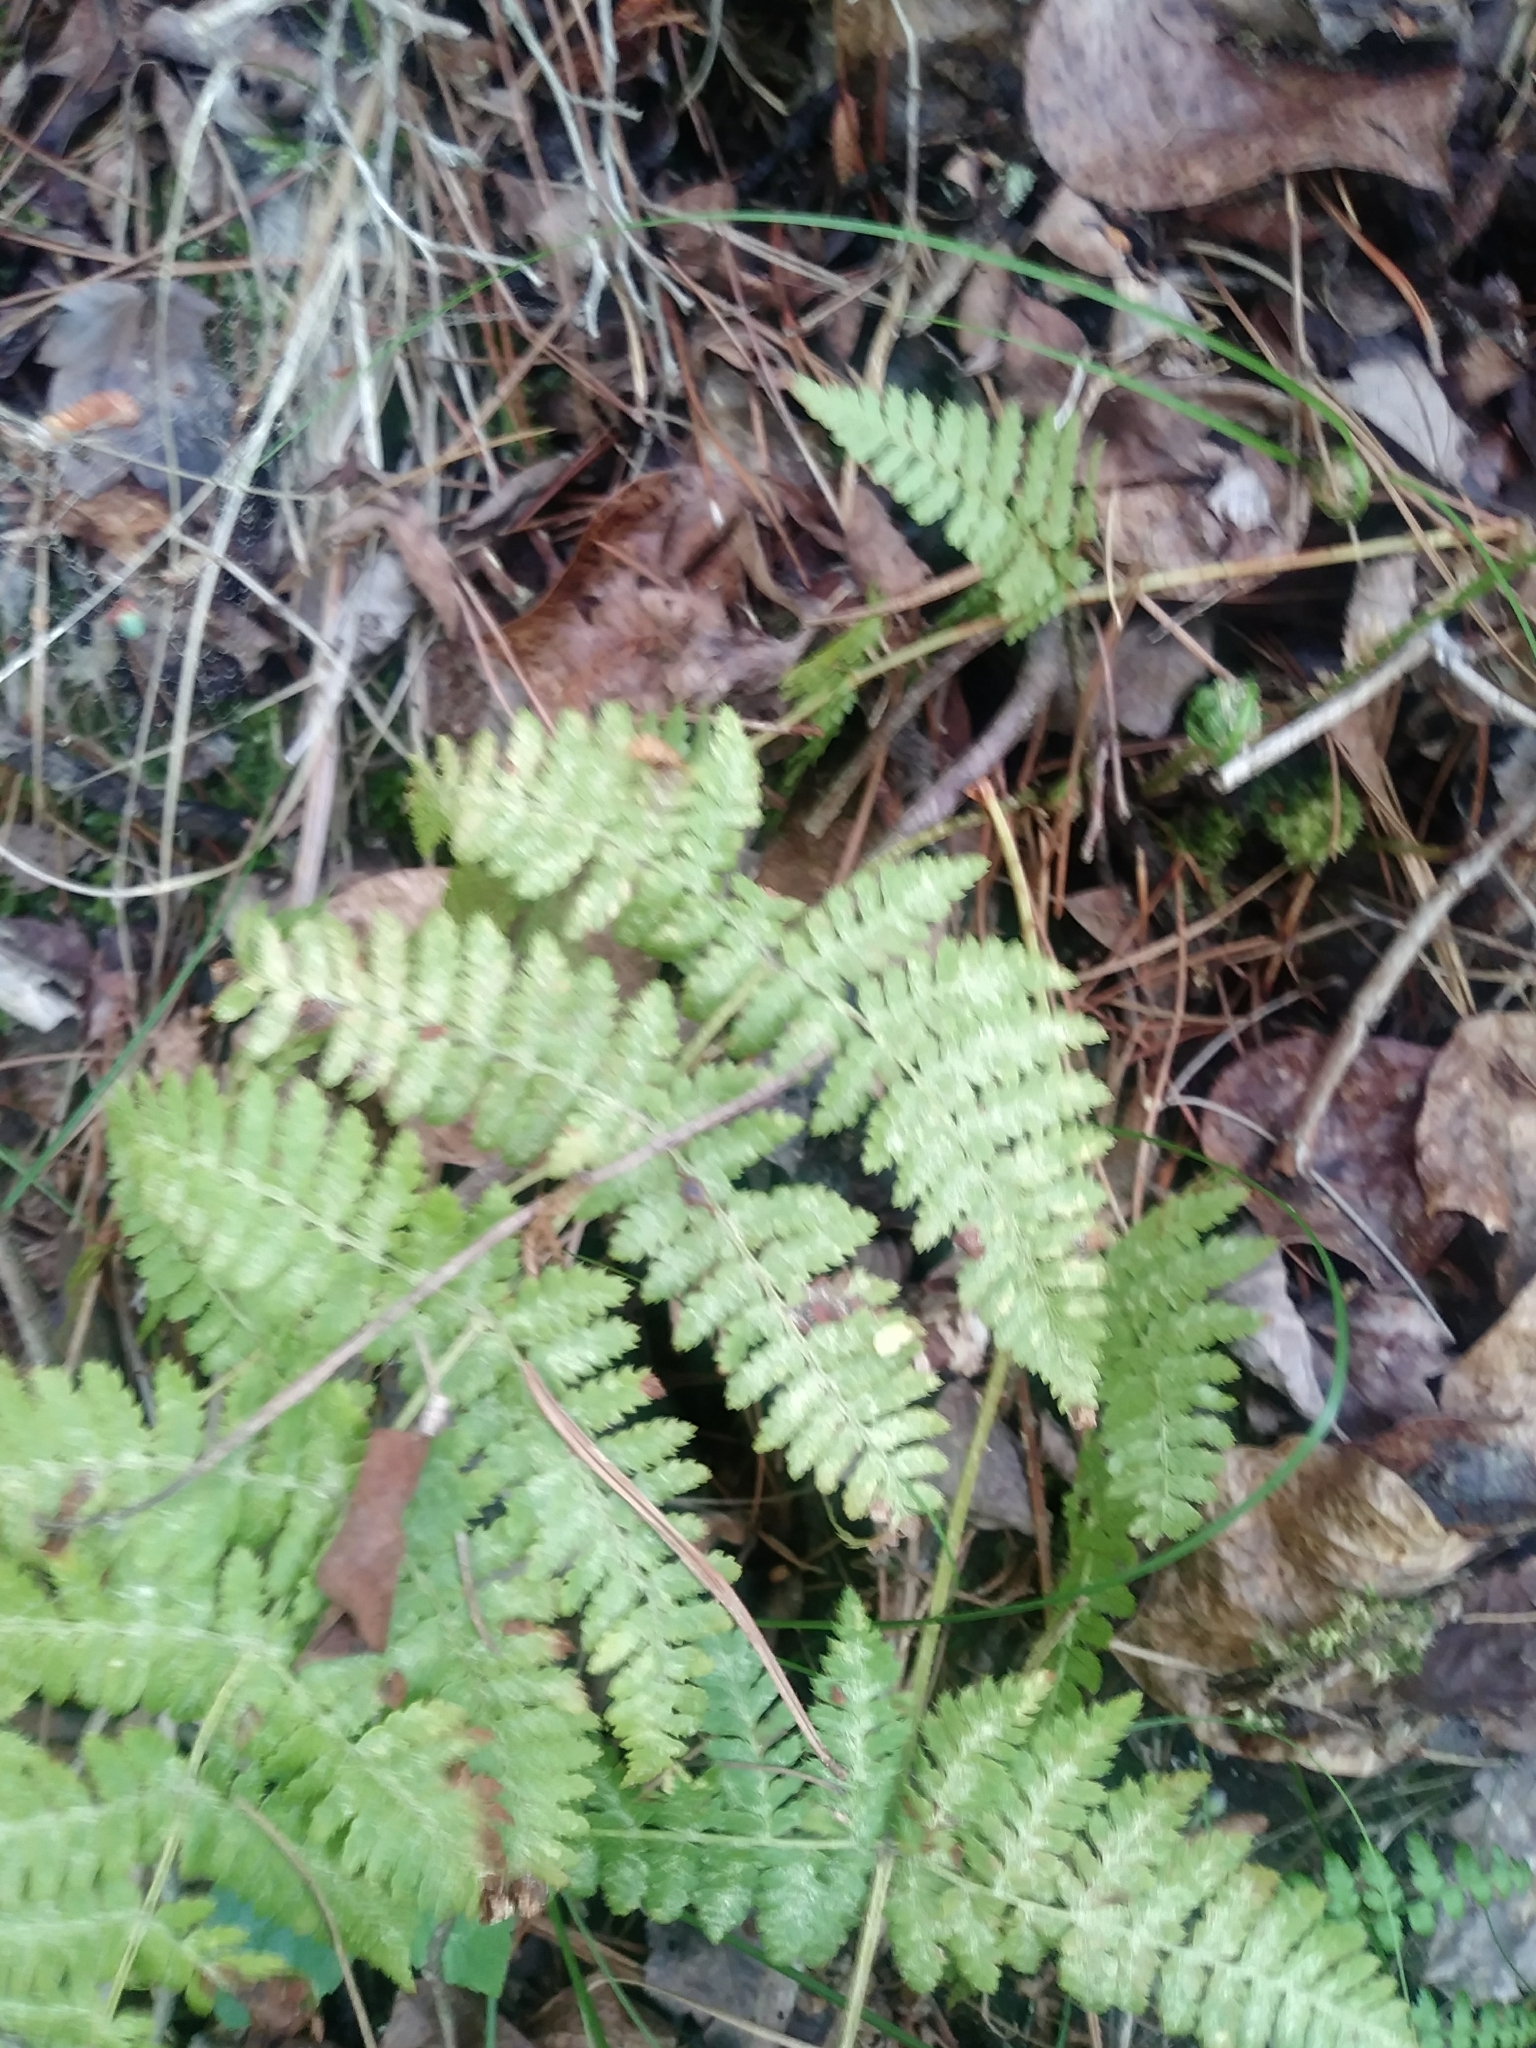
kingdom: Plantae
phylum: Tracheophyta
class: Polypodiopsida
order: Polypodiales
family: Dryopteridaceae
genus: Dryopteris
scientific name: Dryopteris intermedia
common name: Evergreen wood fern
